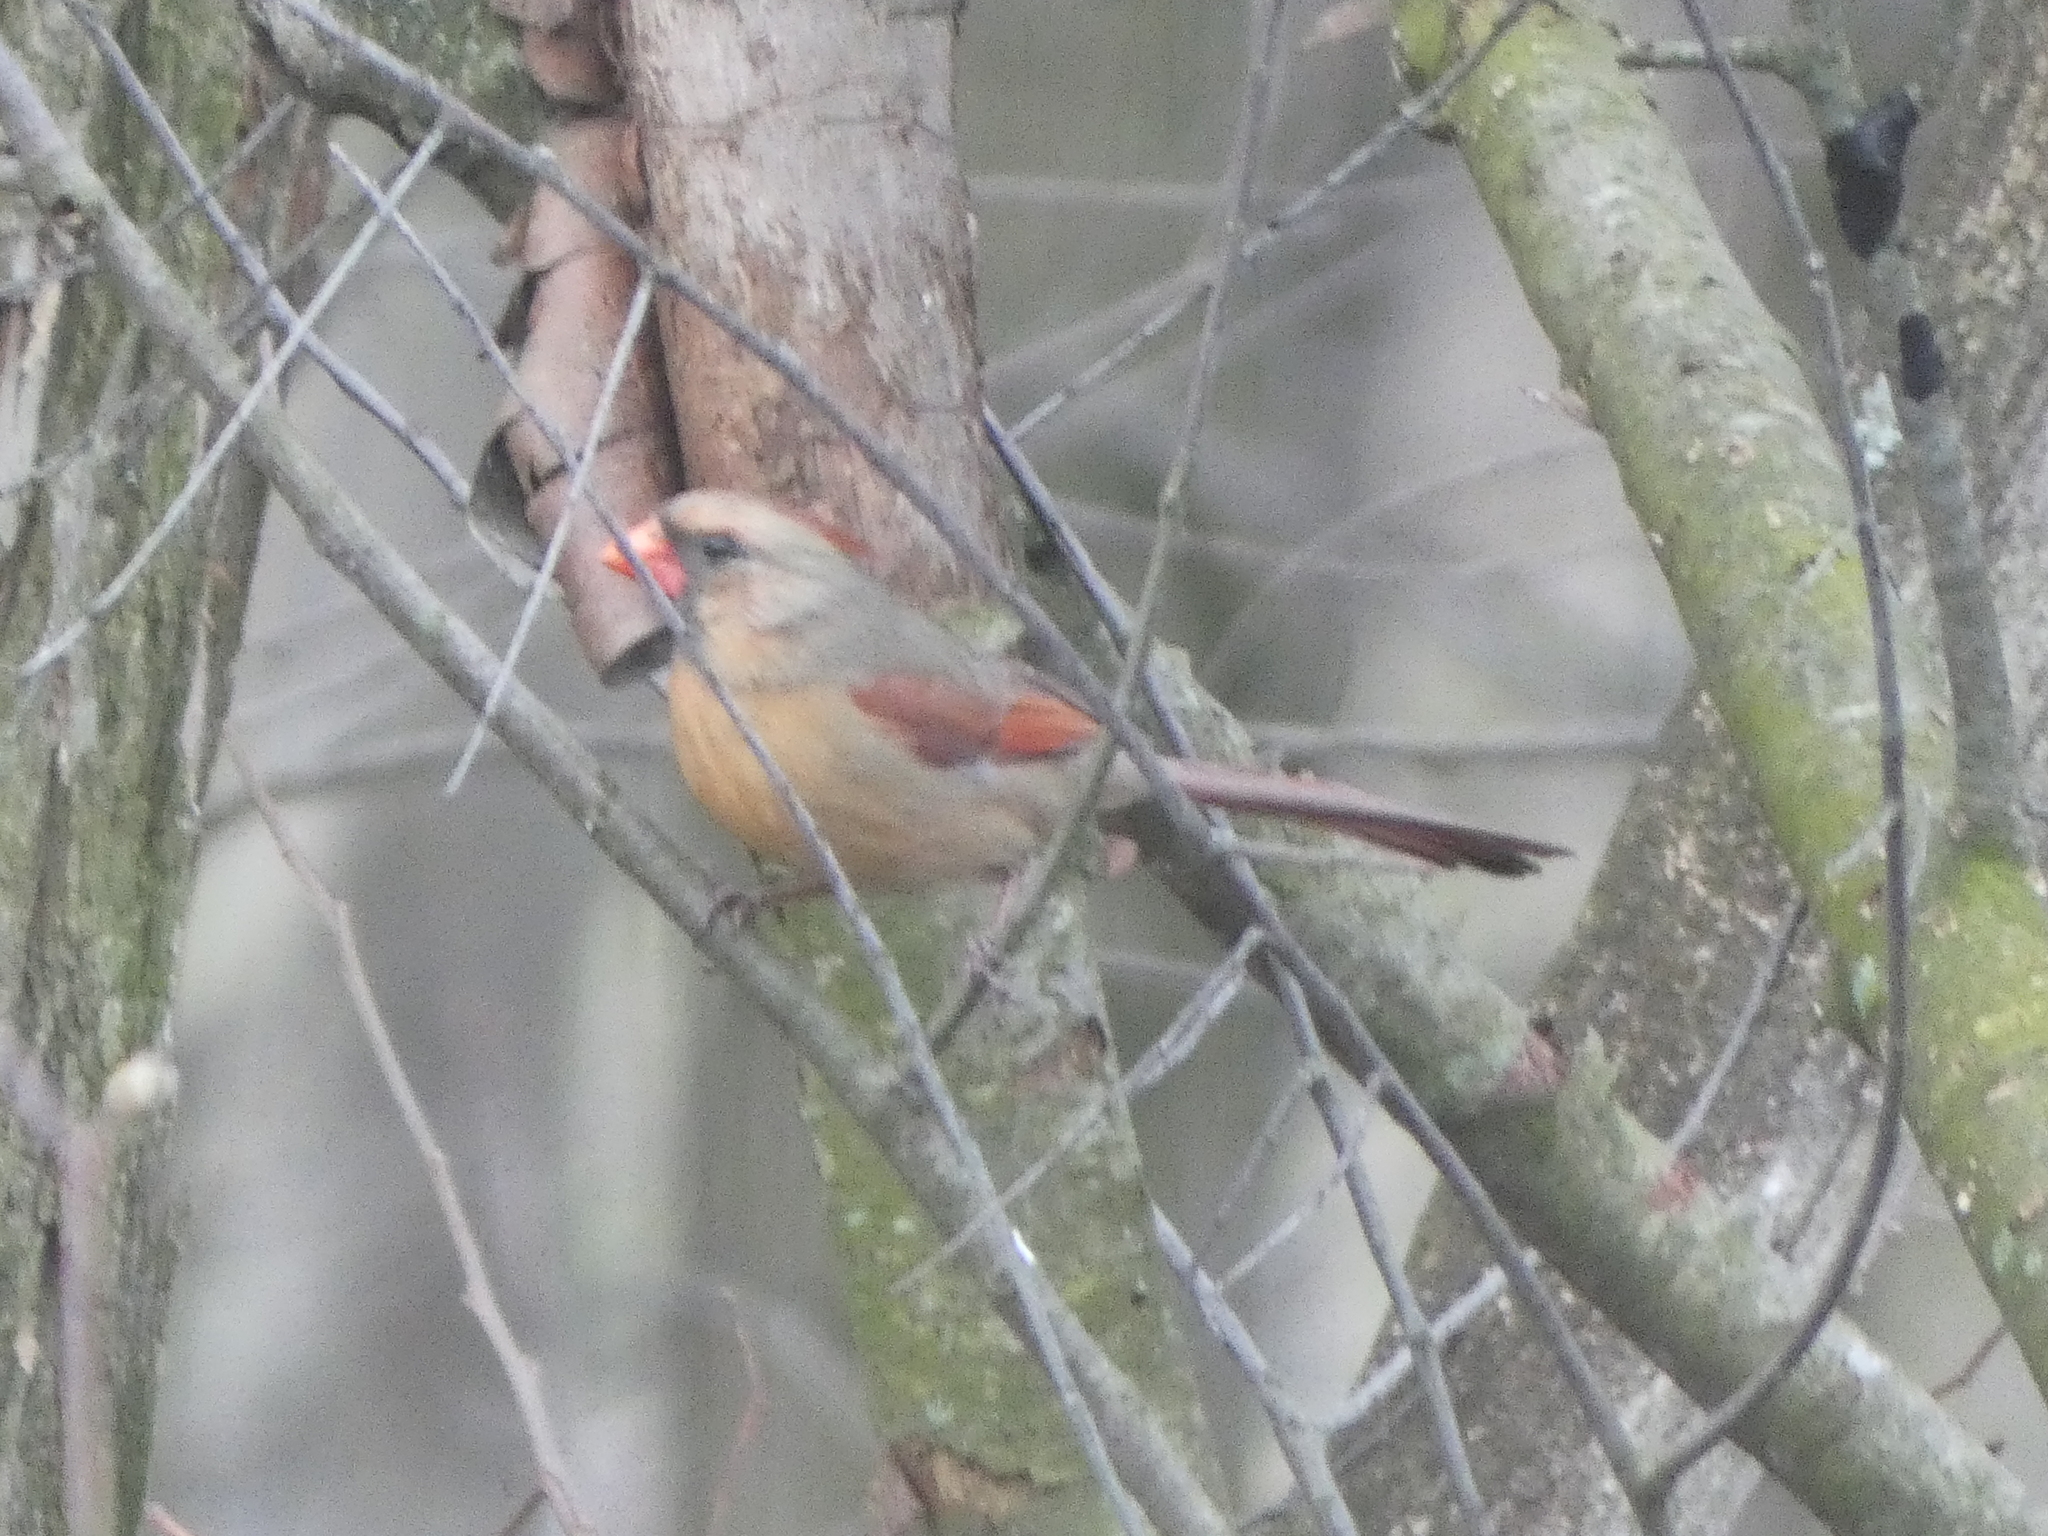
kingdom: Animalia
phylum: Chordata
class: Aves
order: Passeriformes
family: Cardinalidae
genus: Cardinalis
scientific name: Cardinalis cardinalis
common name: Northern cardinal
